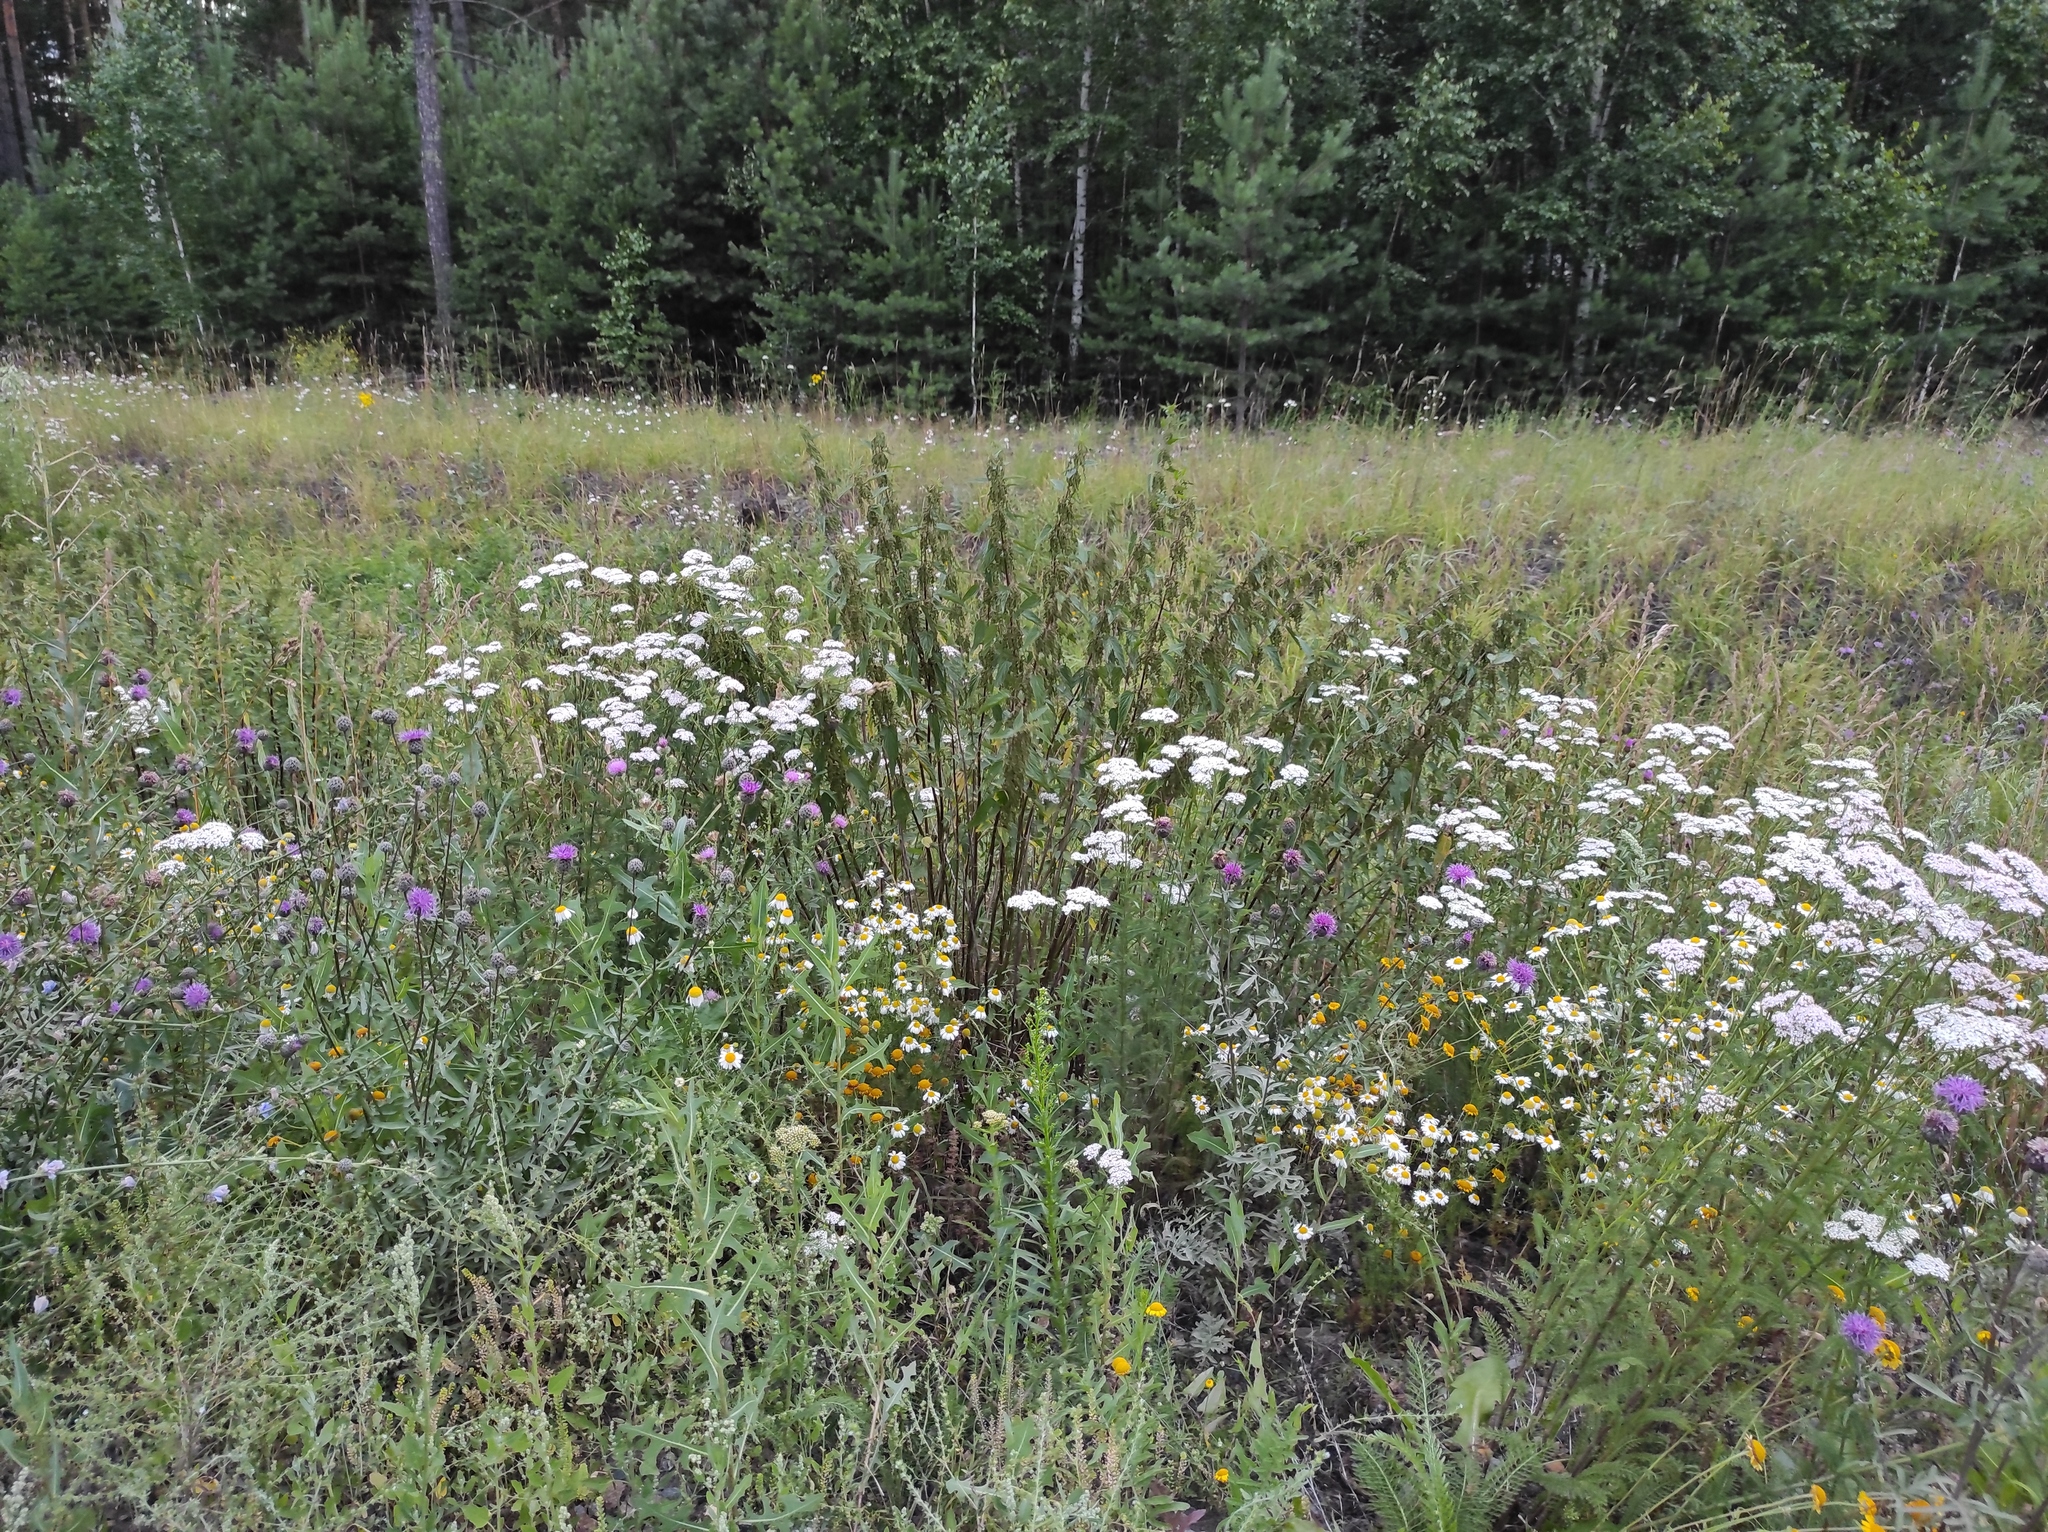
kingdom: Plantae
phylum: Tracheophyta
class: Magnoliopsida
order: Asterales
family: Asteraceae
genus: Cota
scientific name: Cota tinctoria
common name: Golden chamomile
